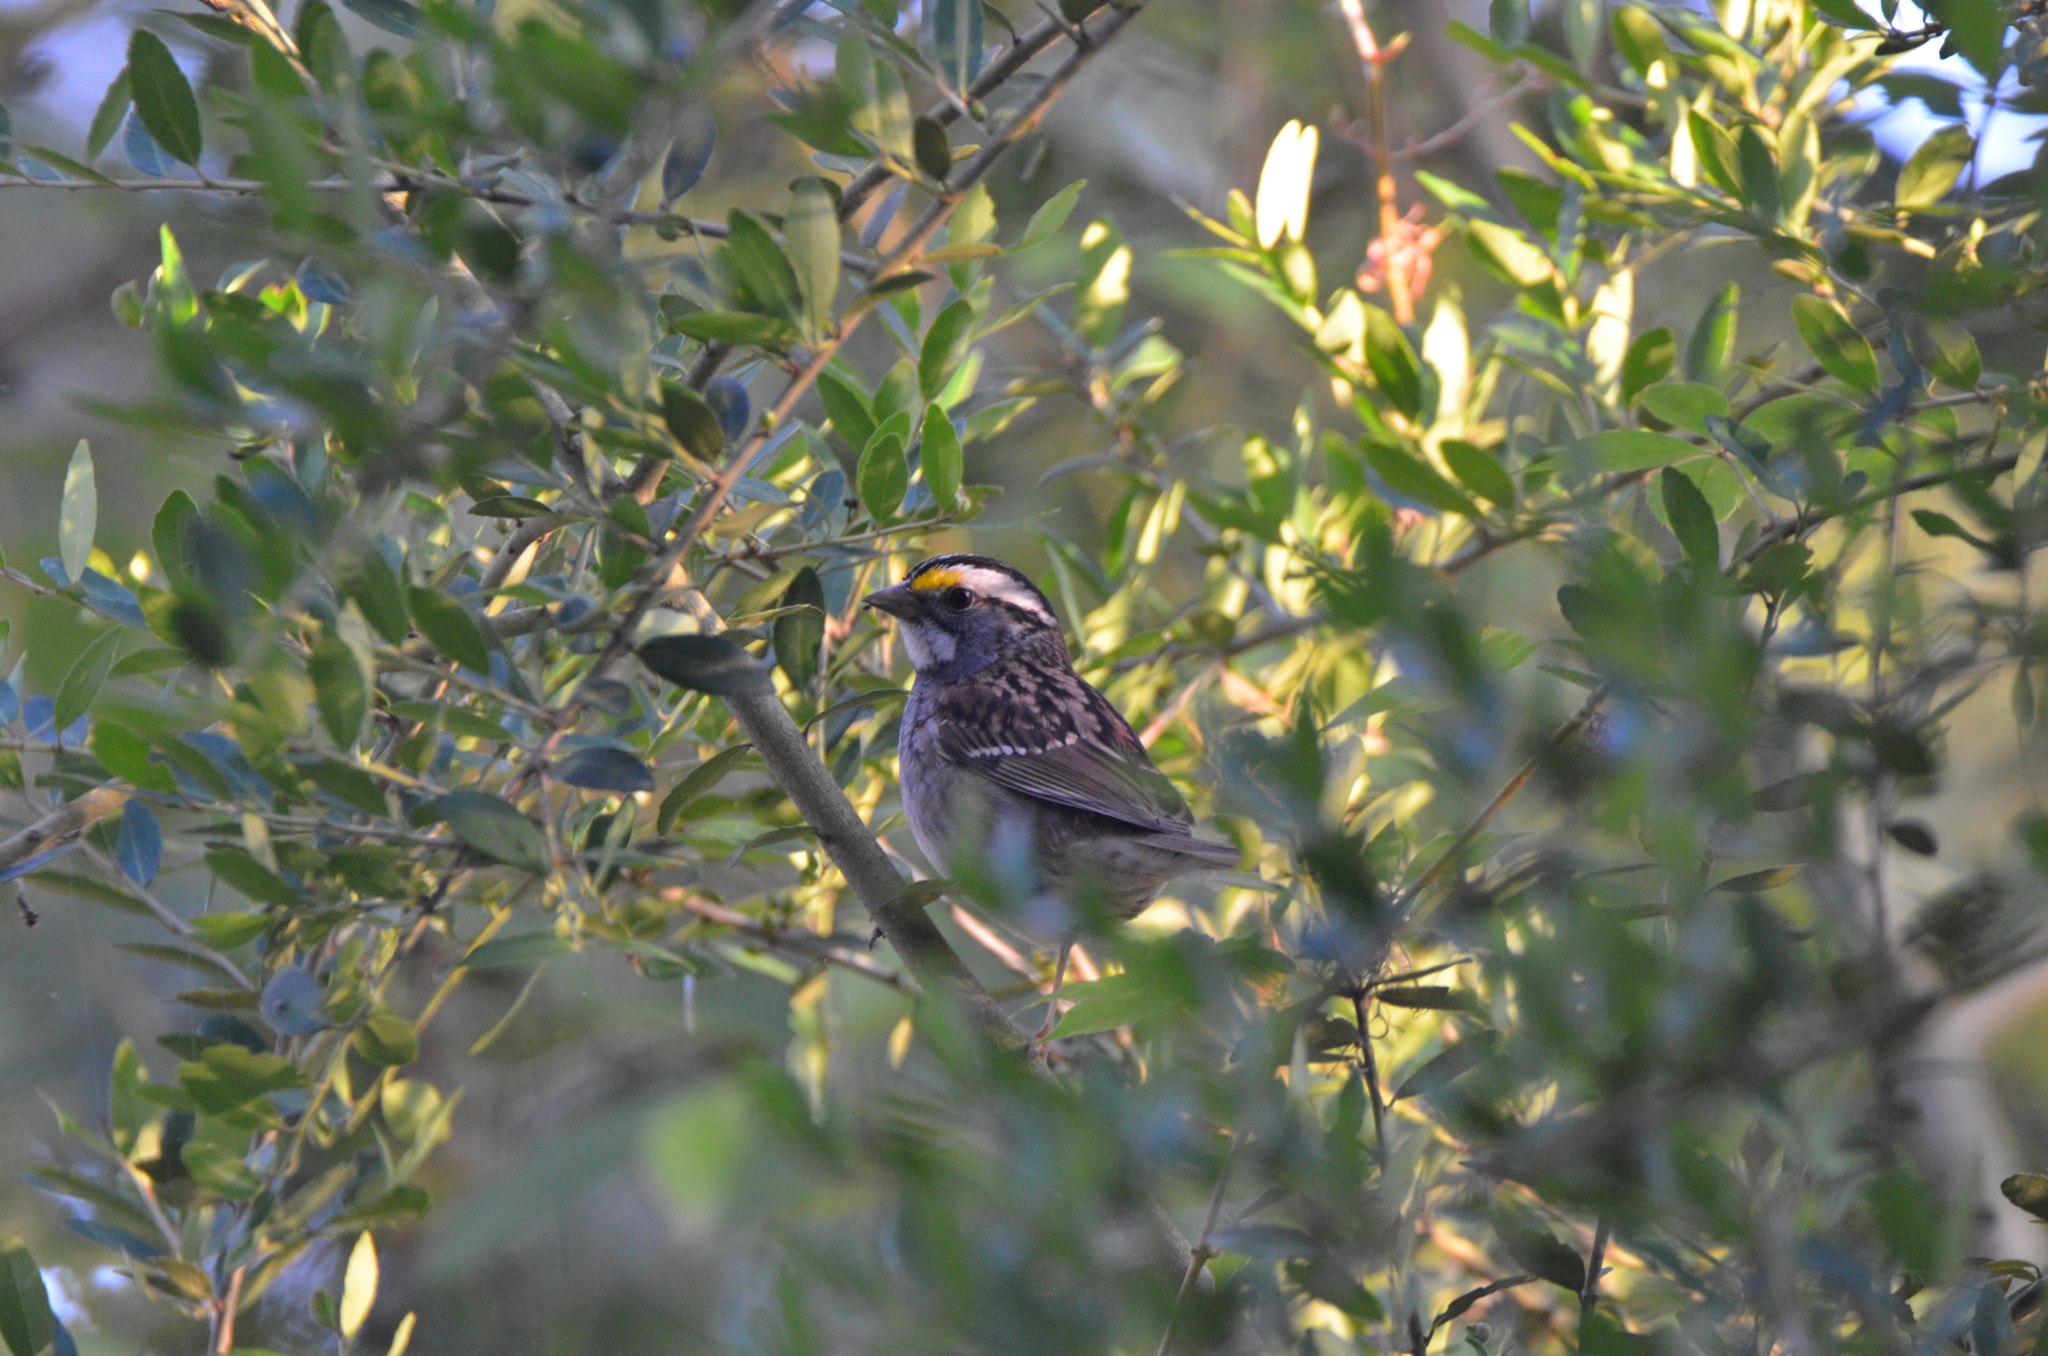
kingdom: Animalia
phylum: Chordata
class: Aves
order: Passeriformes
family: Passerellidae
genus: Zonotrichia
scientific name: Zonotrichia albicollis
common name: White-throated sparrow
